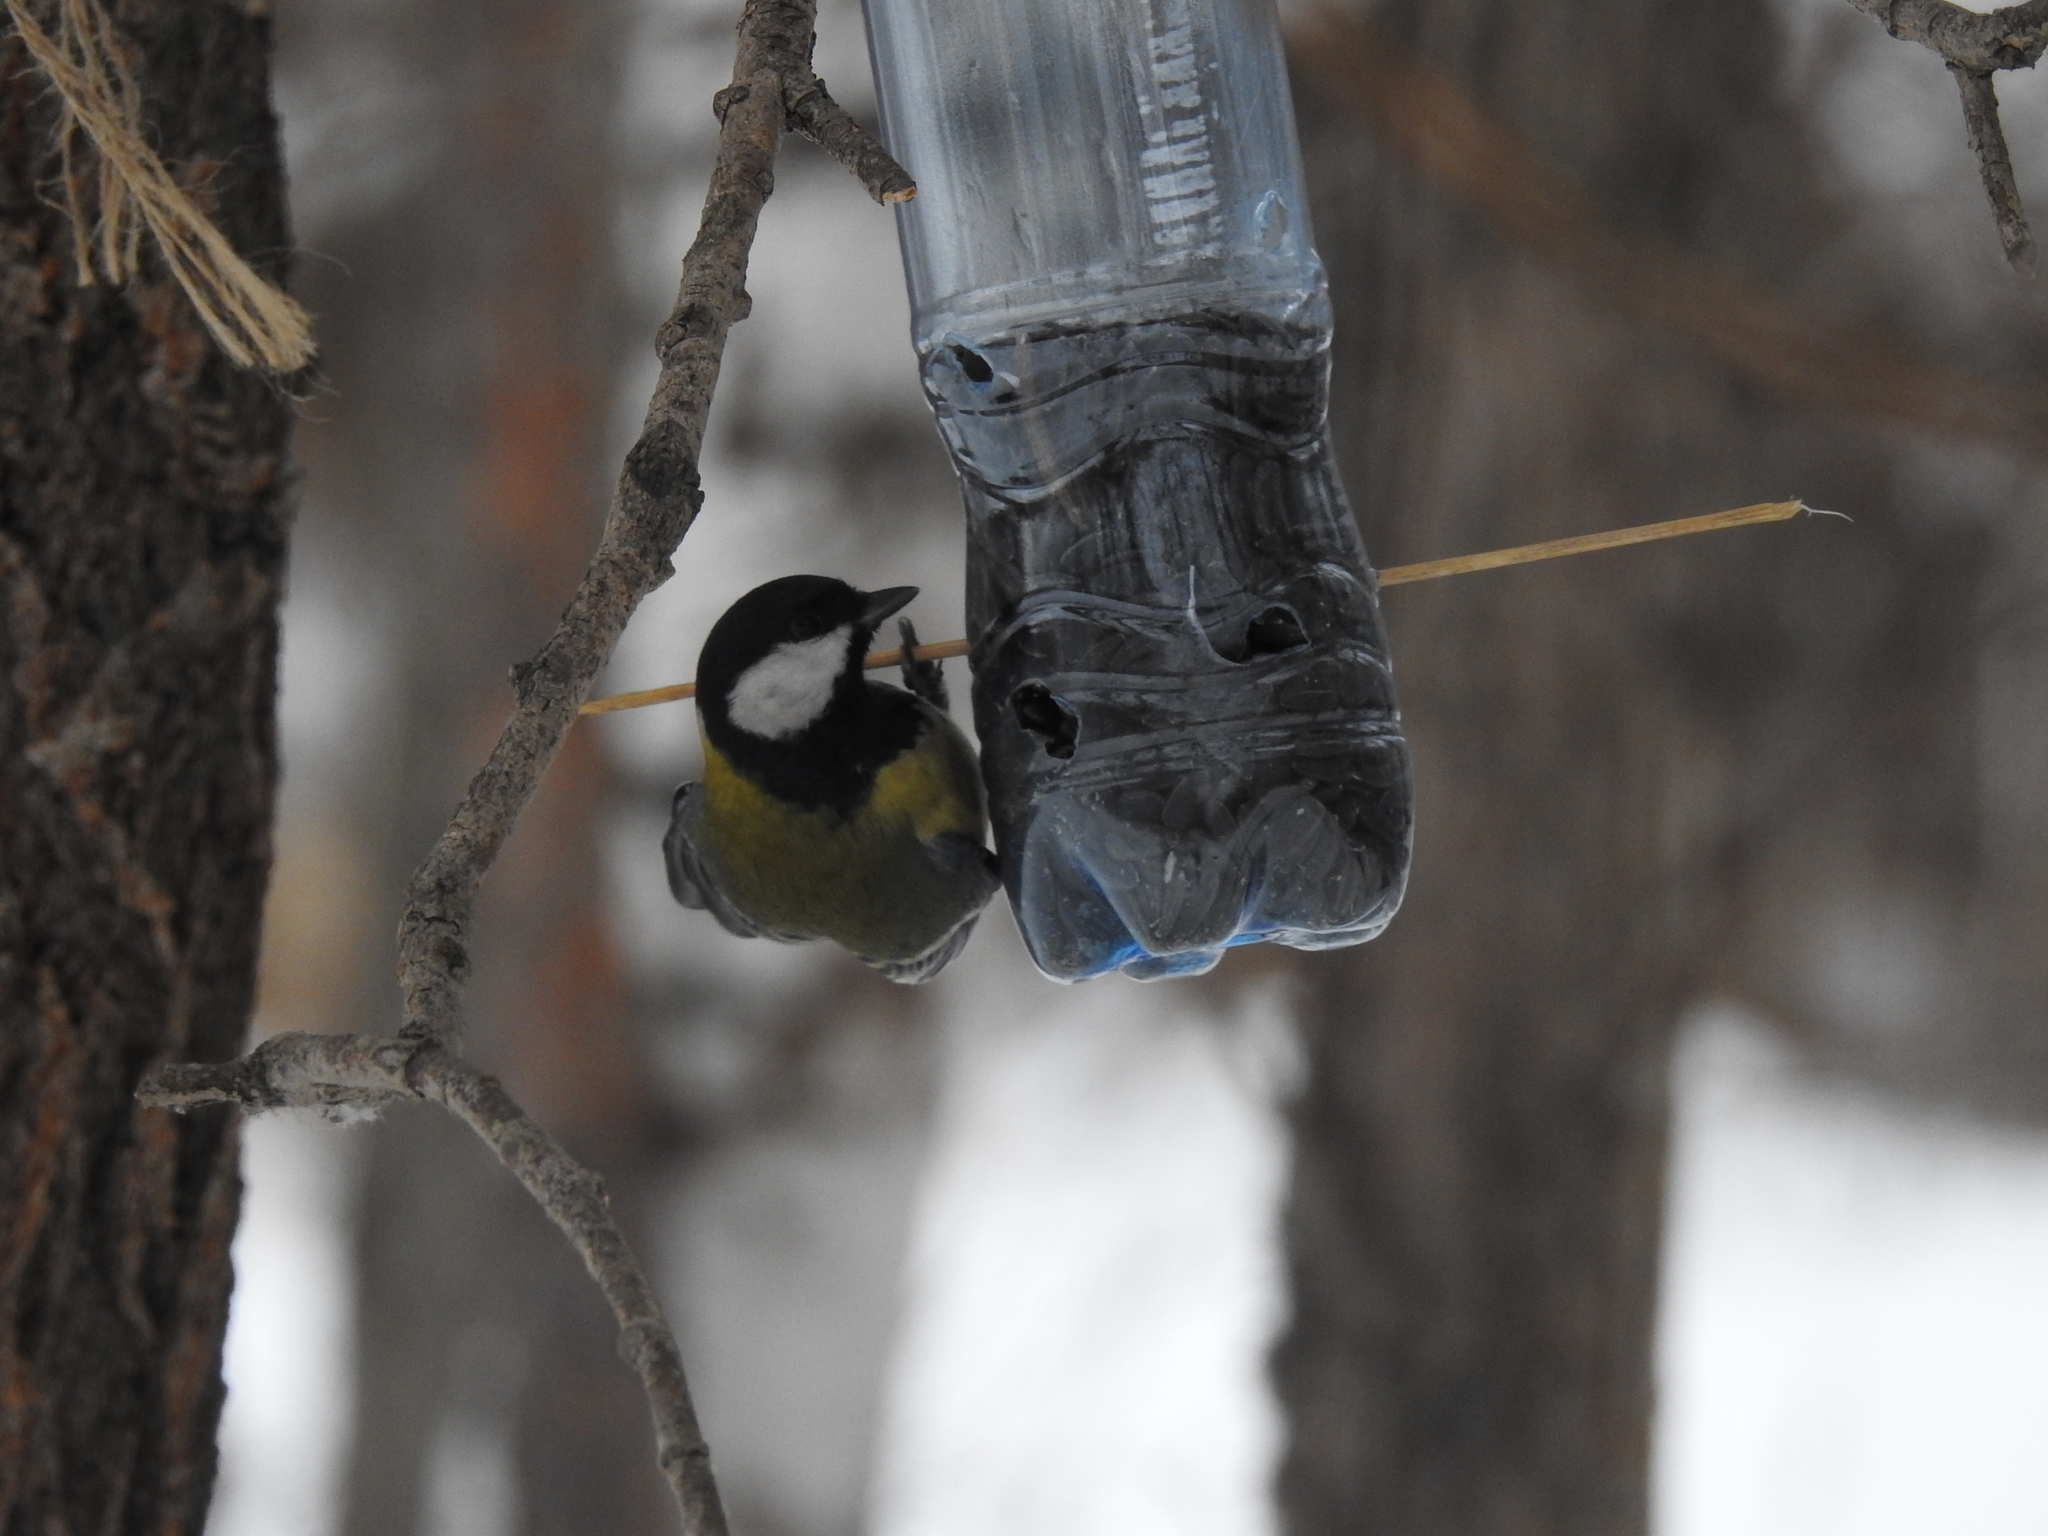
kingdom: Animalia
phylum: Chordata
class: Aves
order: Passeriformes
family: Paridae
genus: Parus
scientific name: Parus major
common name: Great tit
